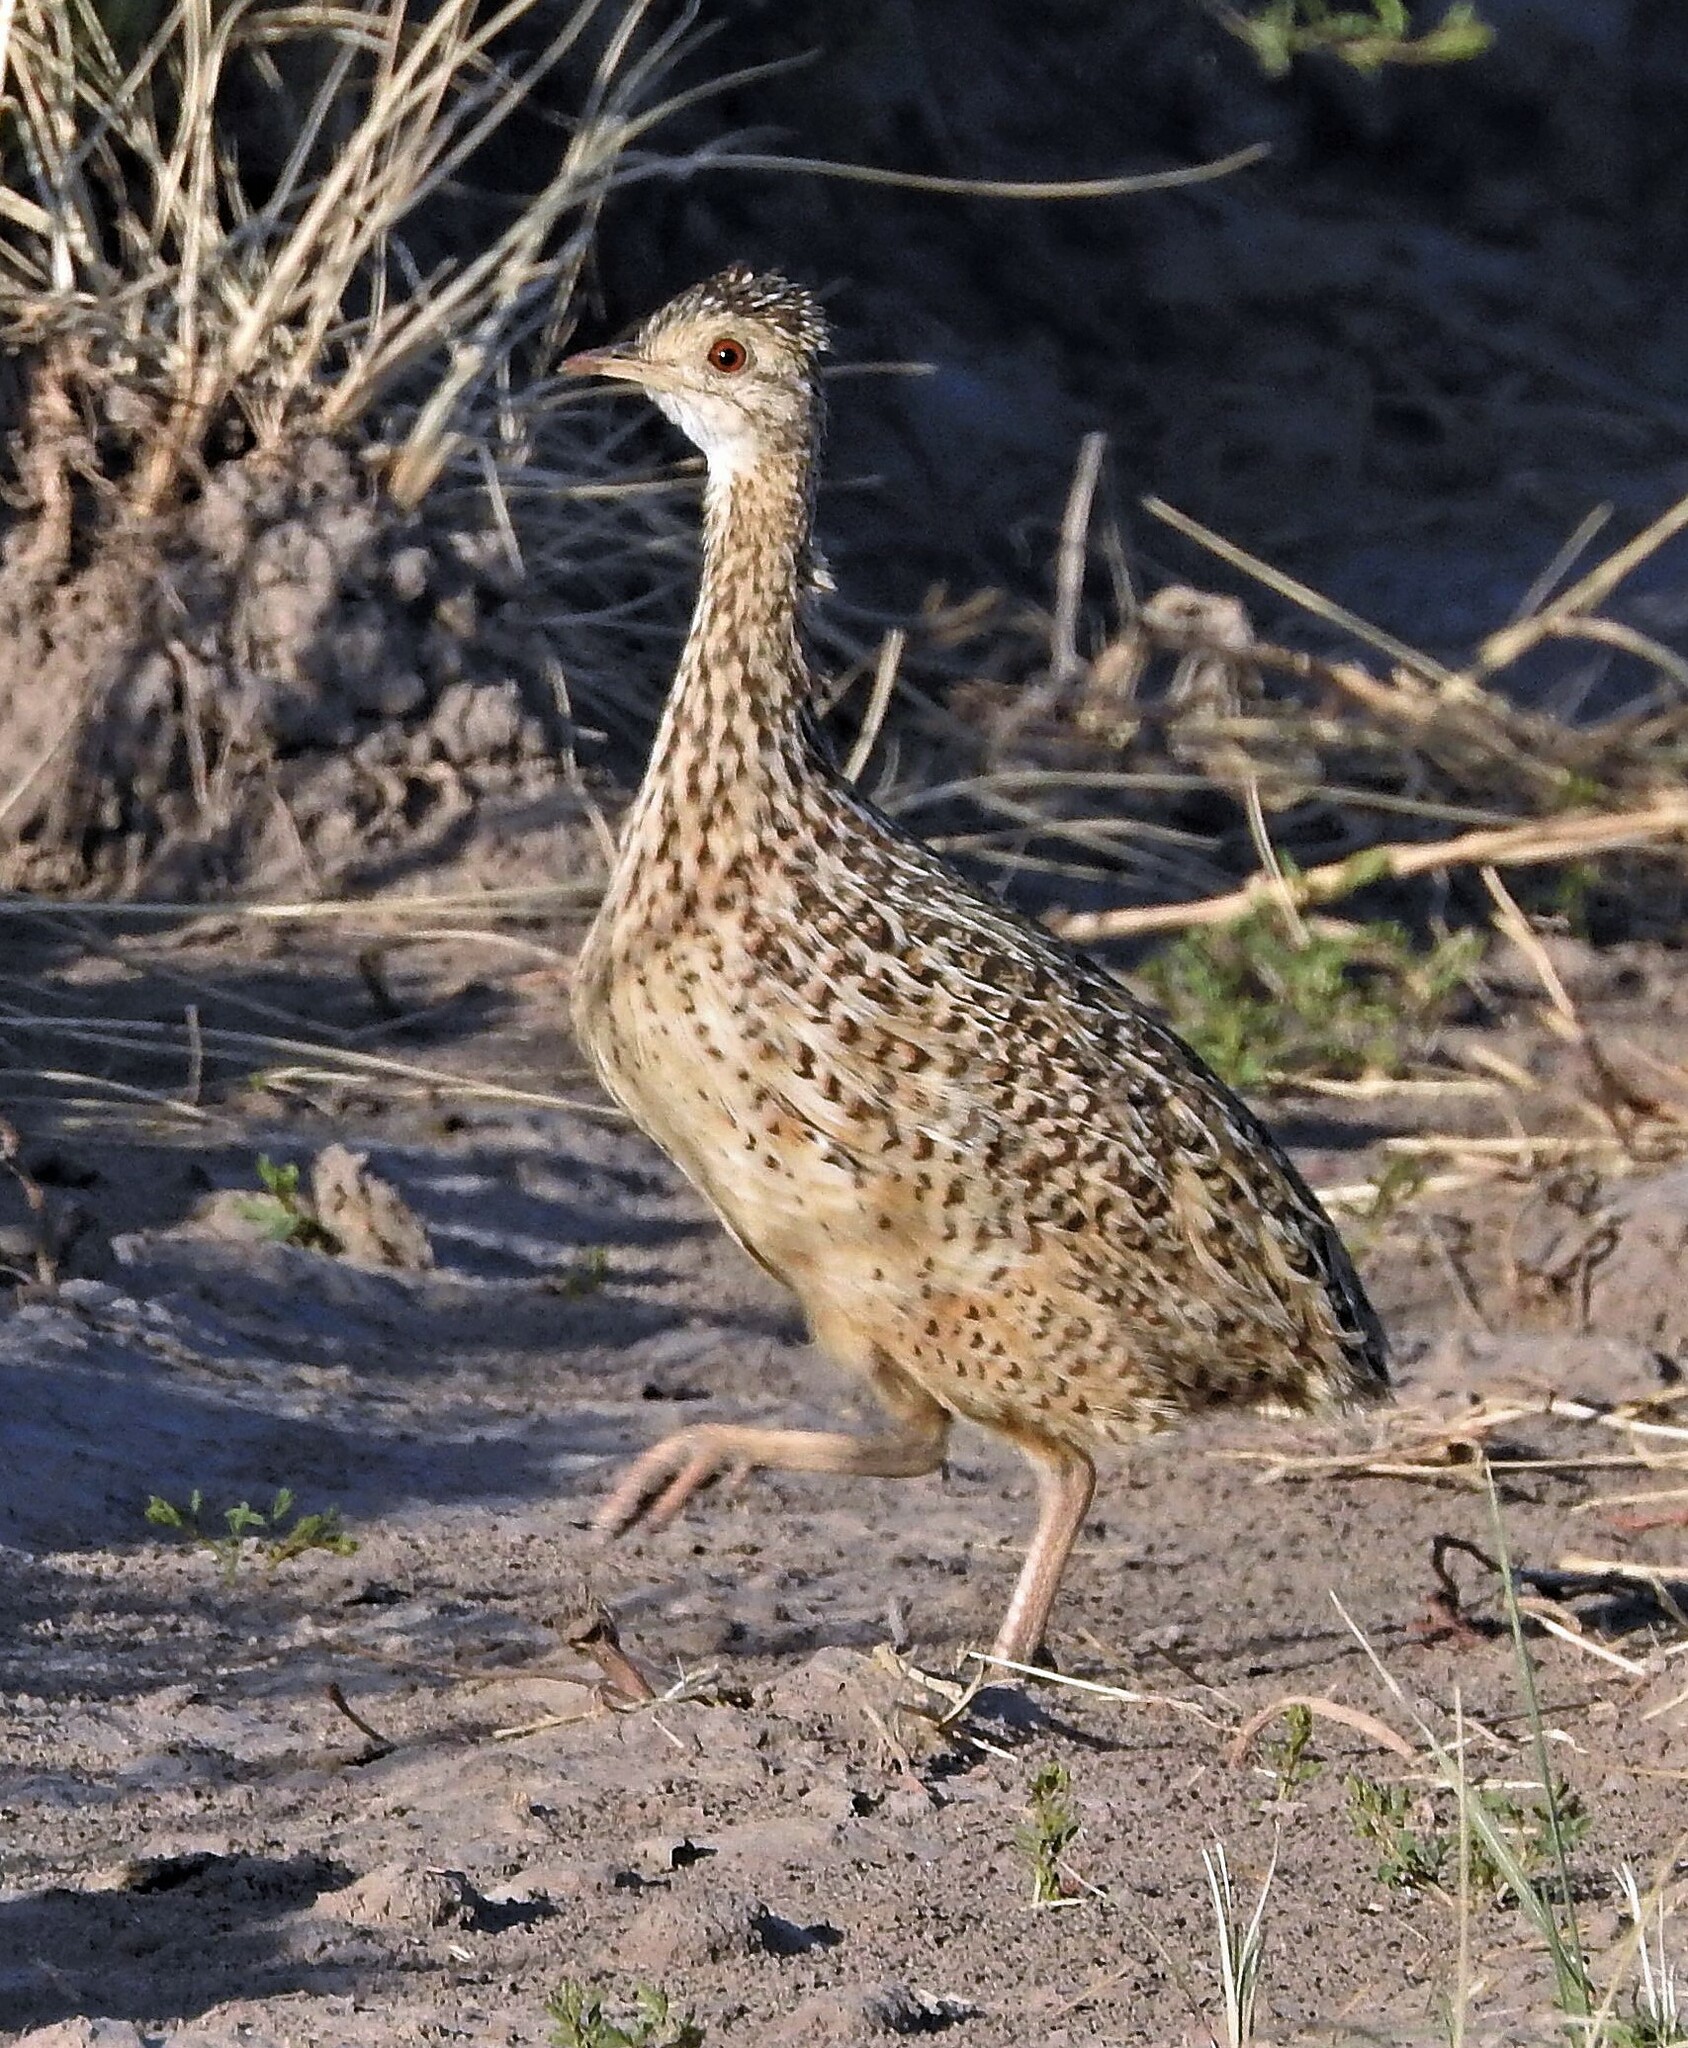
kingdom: Animalia
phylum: Chordata
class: Aves
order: Tinamiformes
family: Tinamidae
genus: Nothura
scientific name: Nothura maculosa
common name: Spotted nothura
